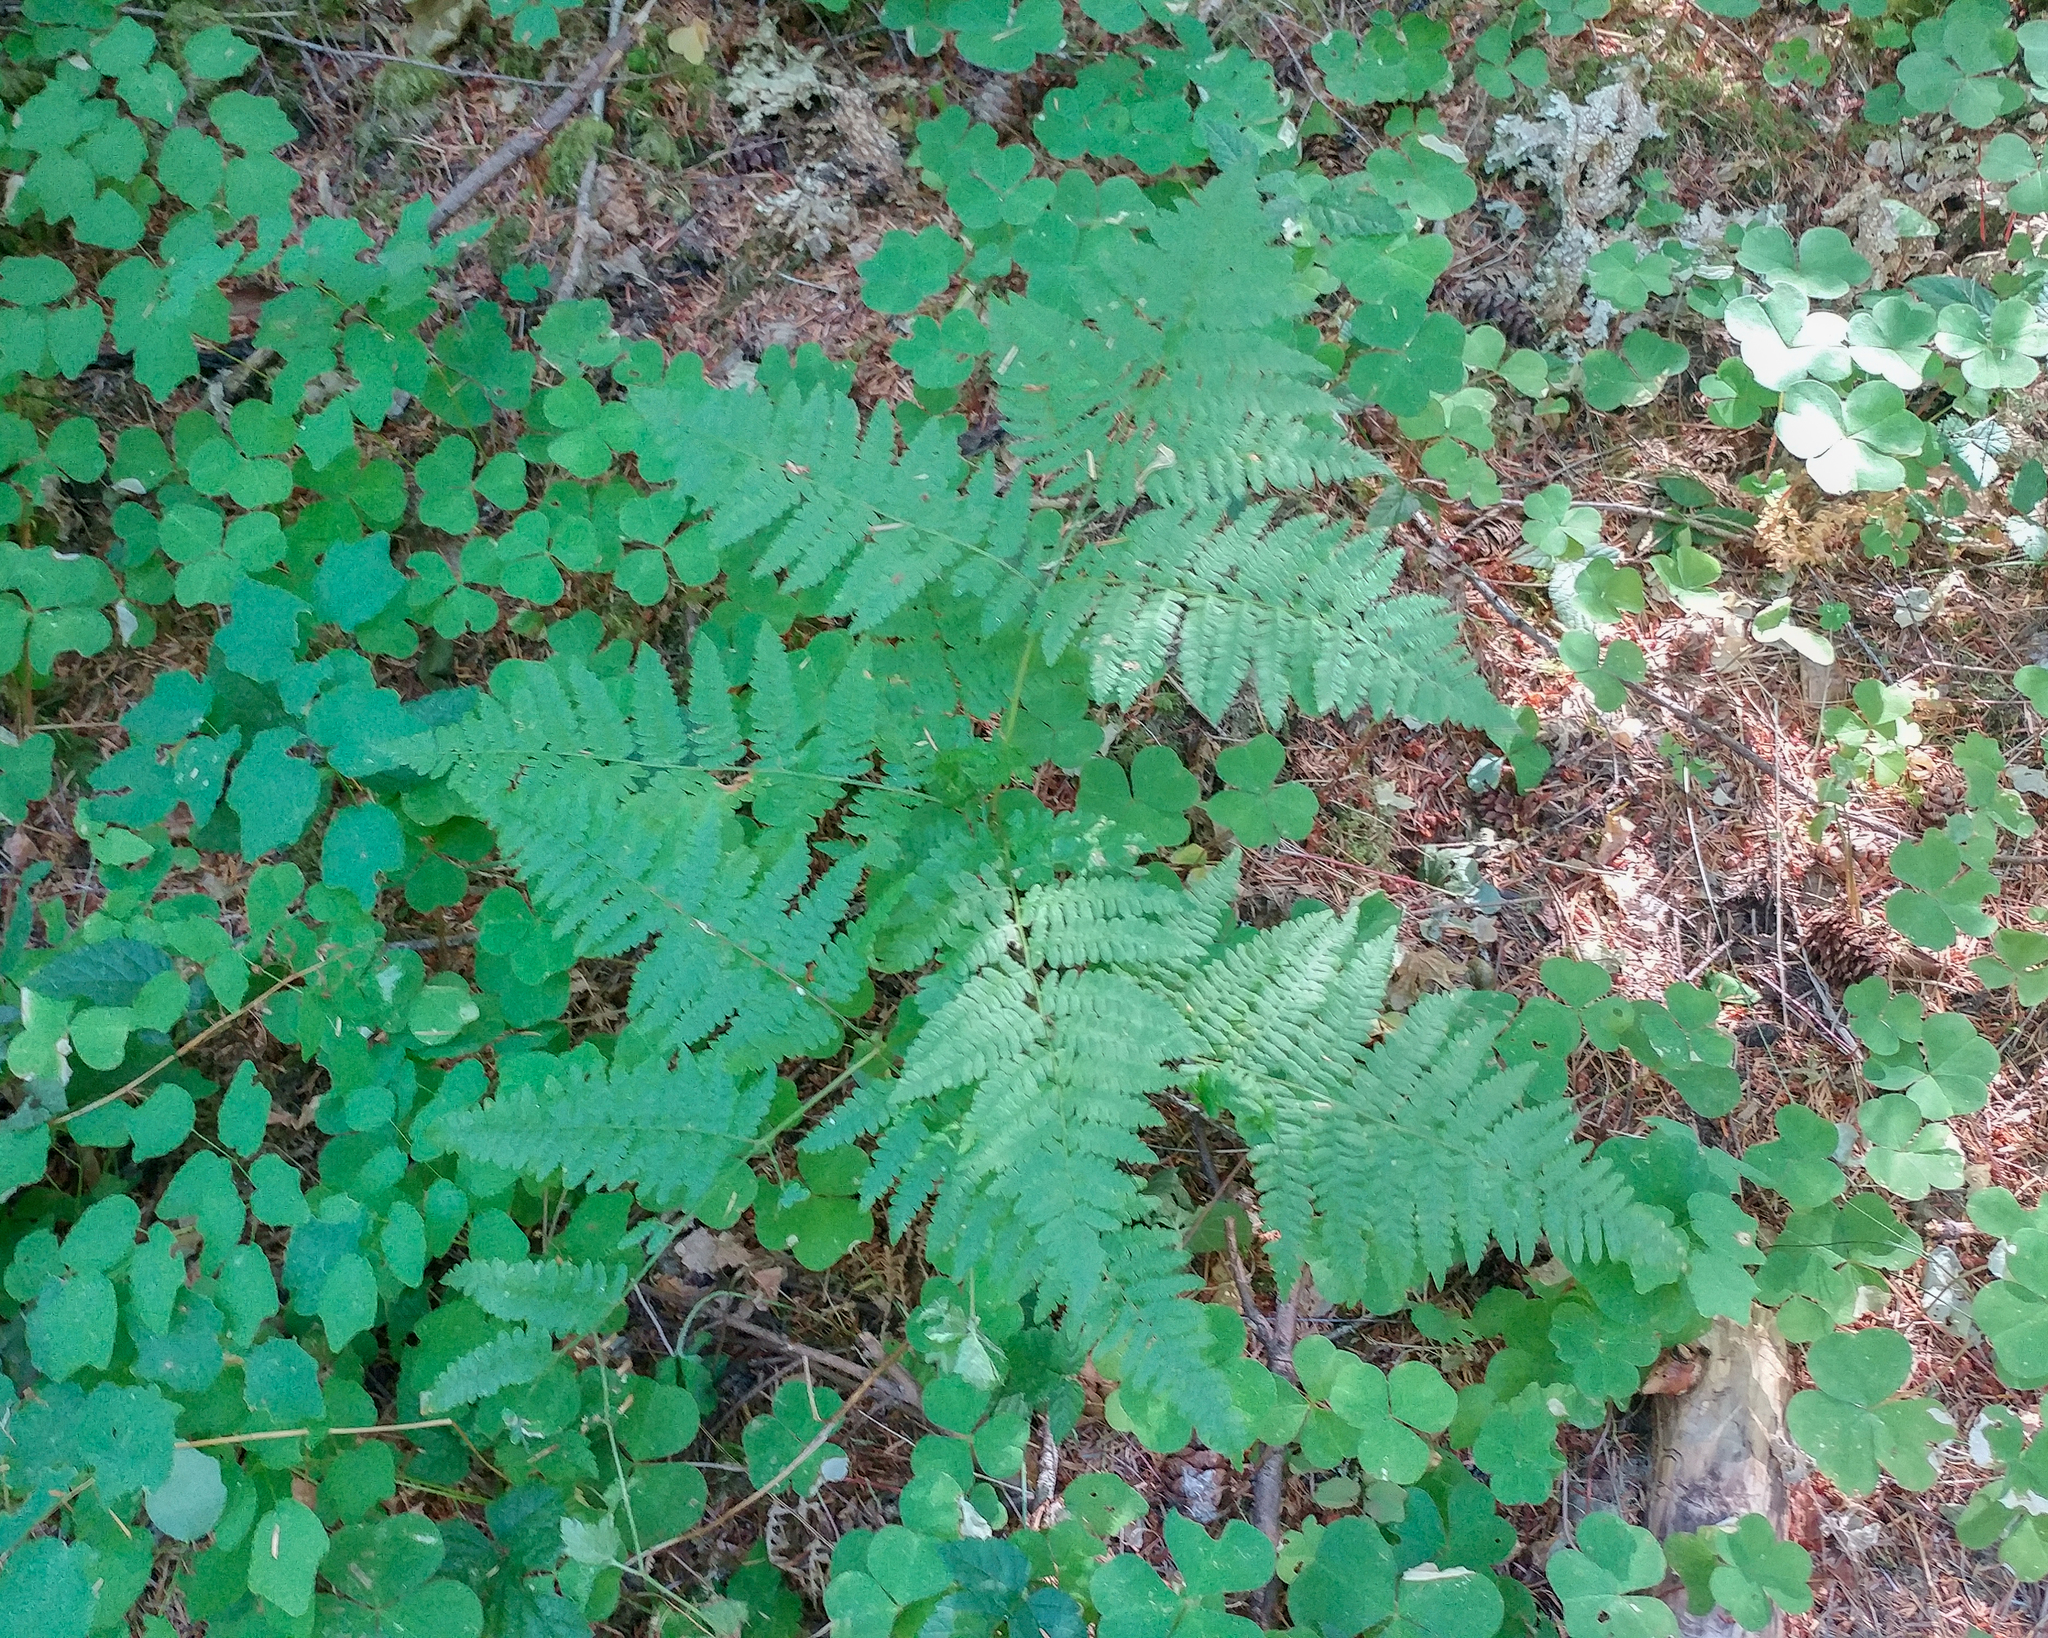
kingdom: Plantae
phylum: Tracheophyta
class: Polypodiopsida
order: Polypodiales
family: Dennstaedtiaceae
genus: Pteridium
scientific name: Pteridium aquilinum
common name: Bracken
